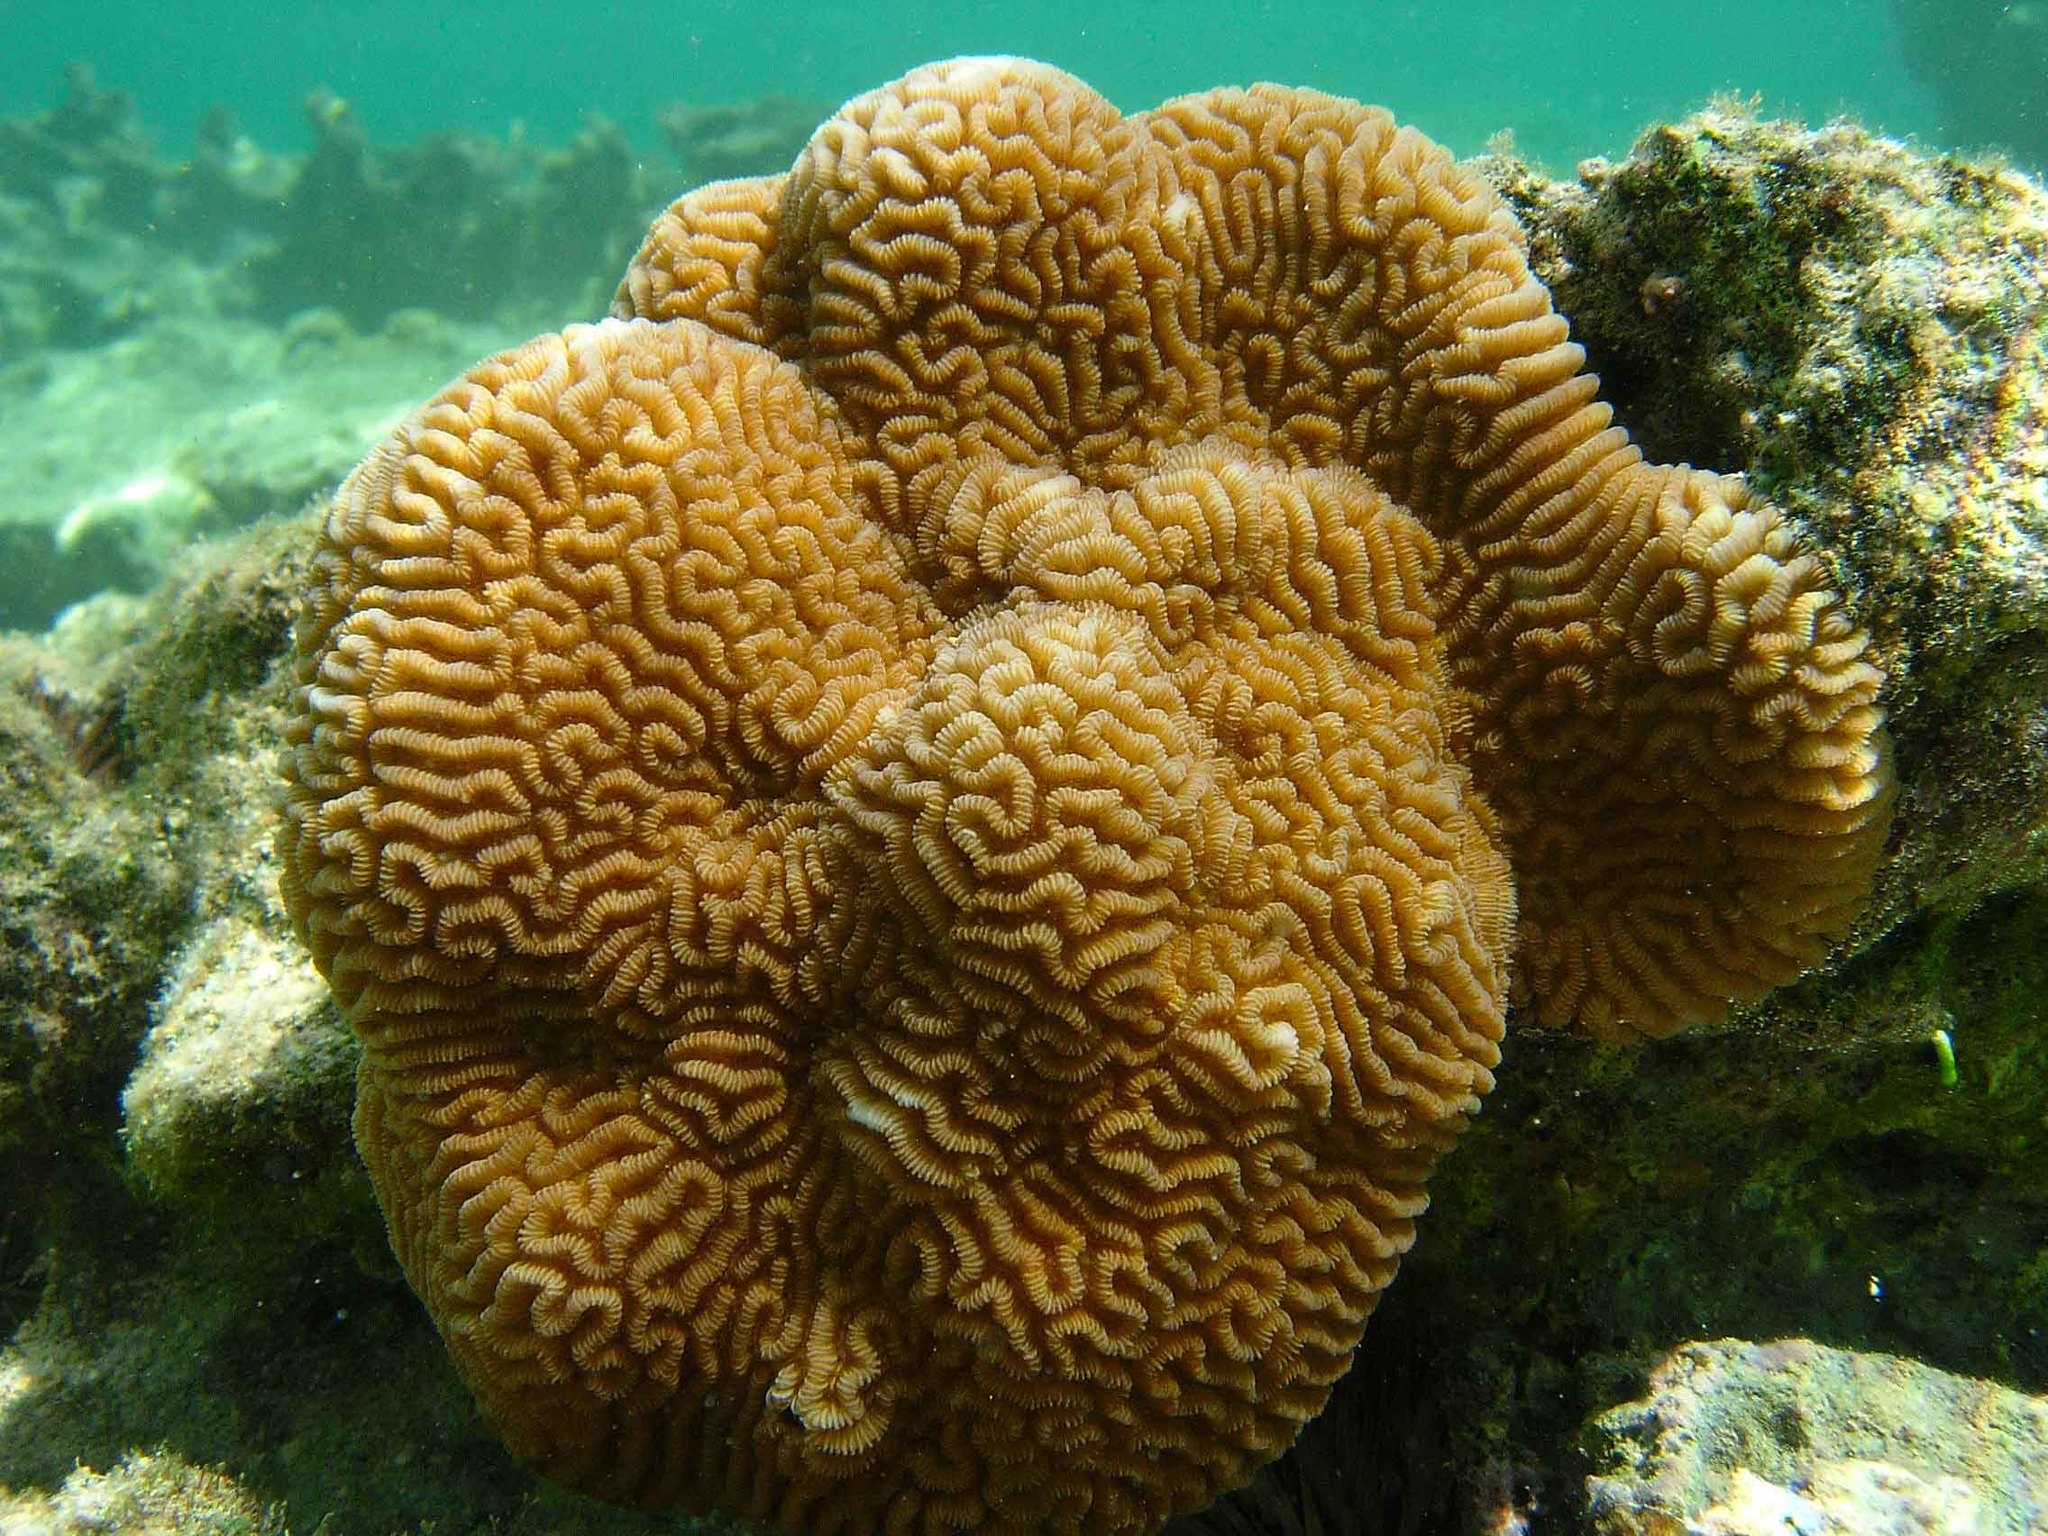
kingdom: Animalia
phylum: Cnidaria
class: Anthozoa
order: Scleractinia
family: Merulinidae
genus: Leptoria
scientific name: Leptoria phrygia
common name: Least valley coral
